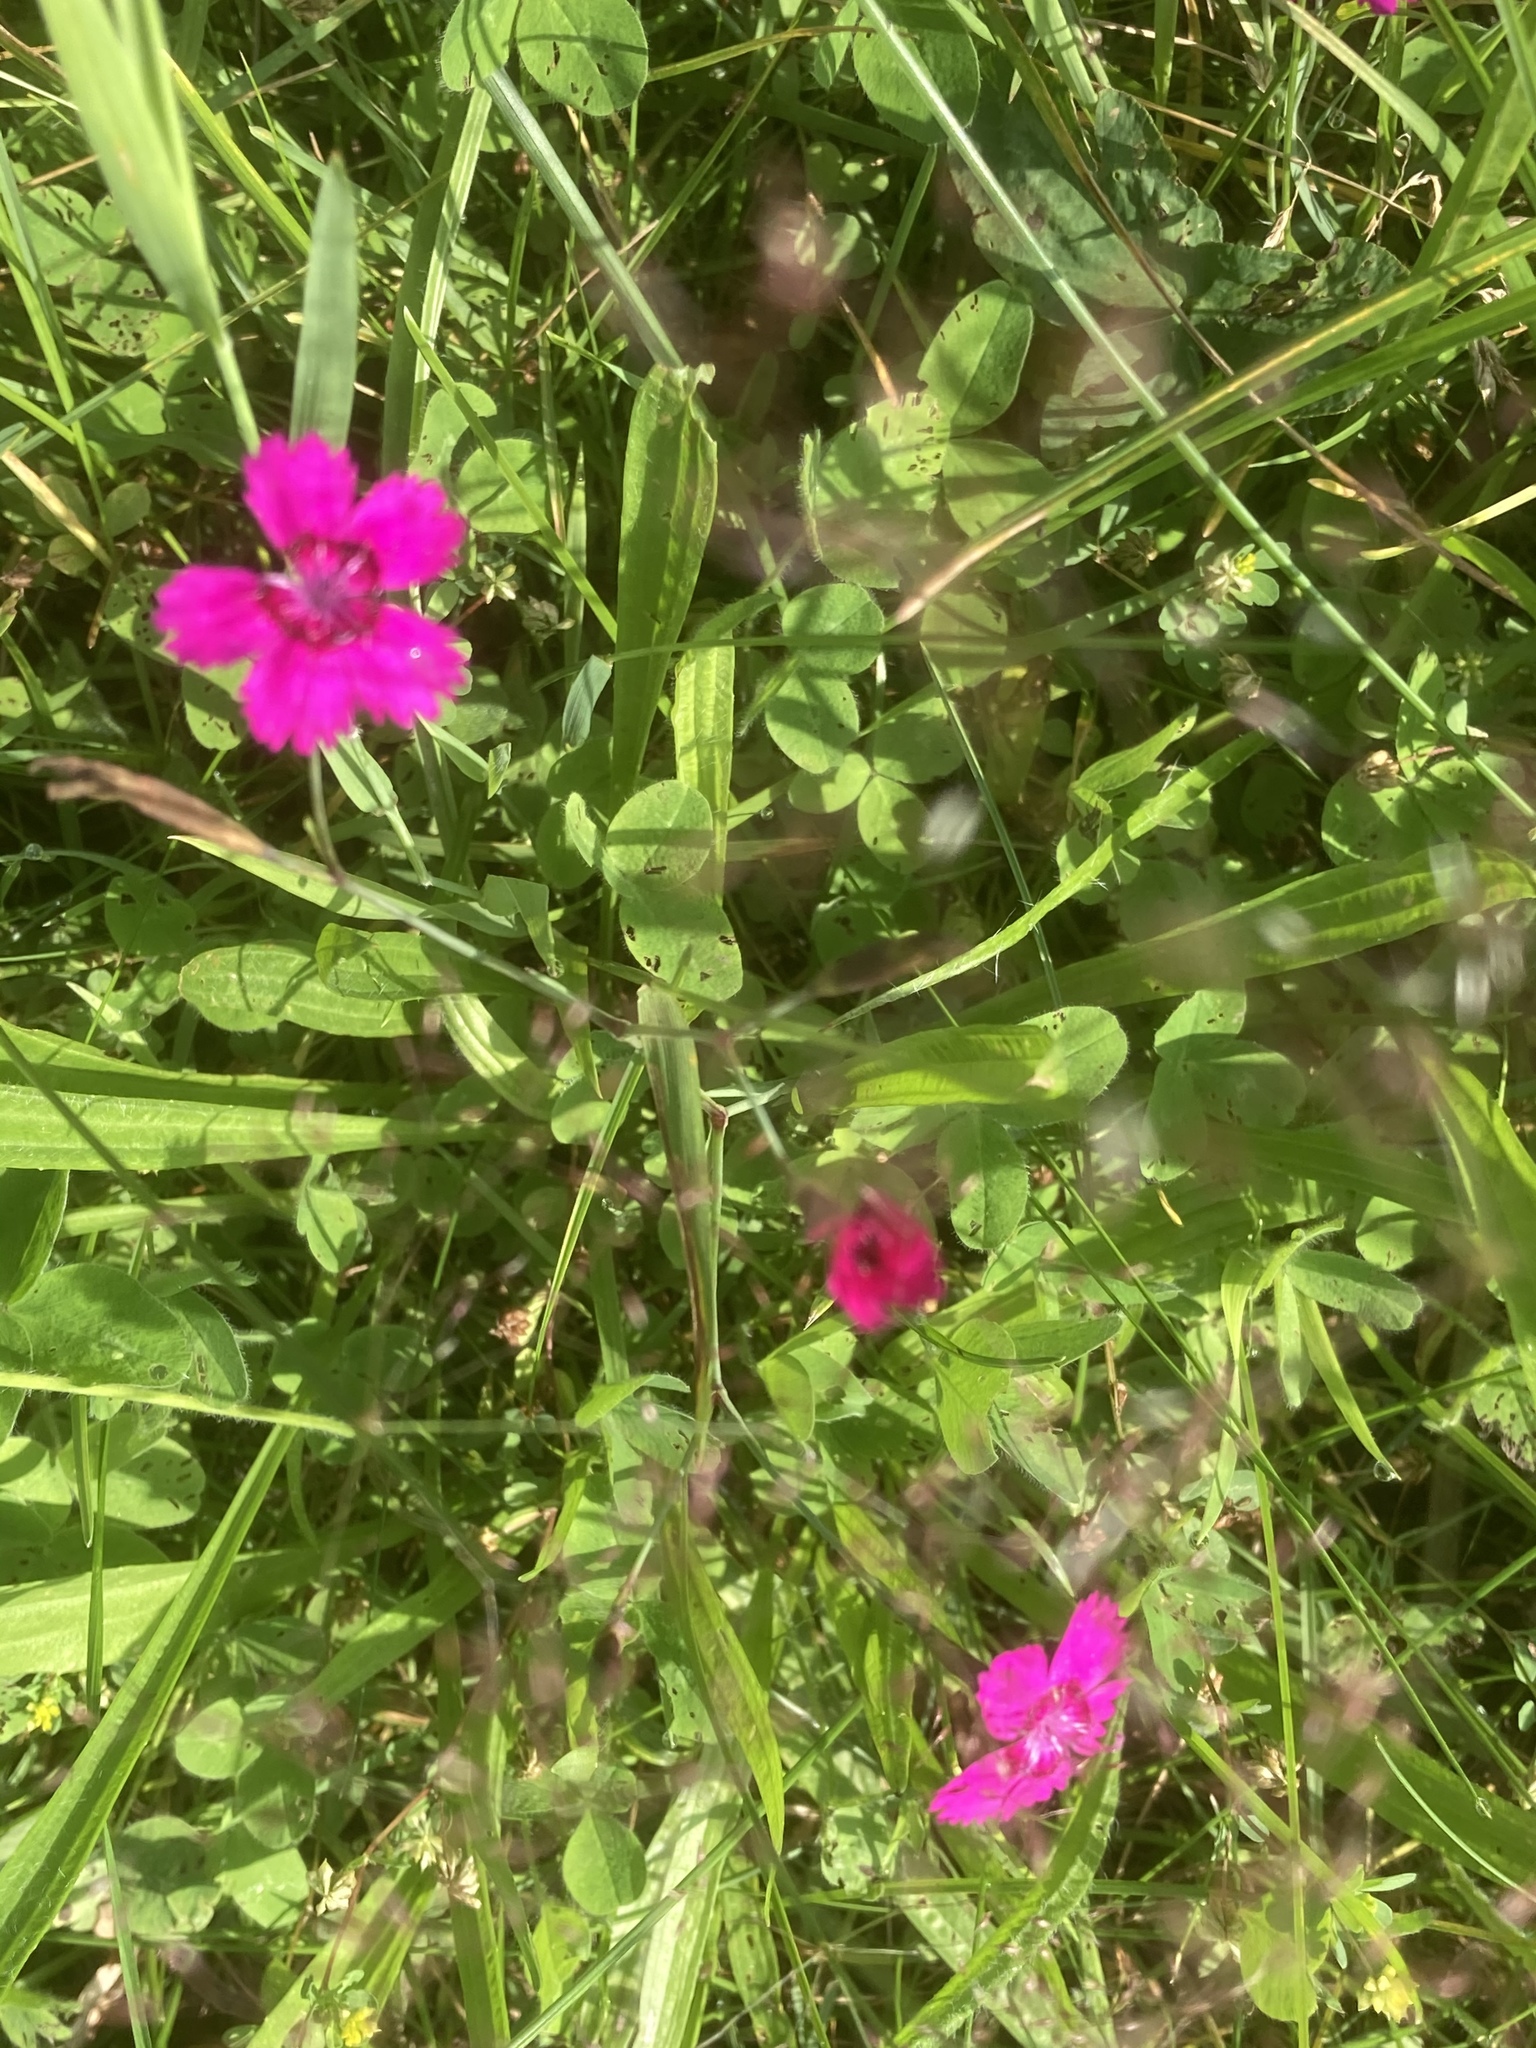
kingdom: Plantae
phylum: Tracheophyta
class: Magnoliopsida
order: Caryophyllales
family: Caryophyllaceae
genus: Dianthus
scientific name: Dianthus deltoides
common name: Maiden pink
